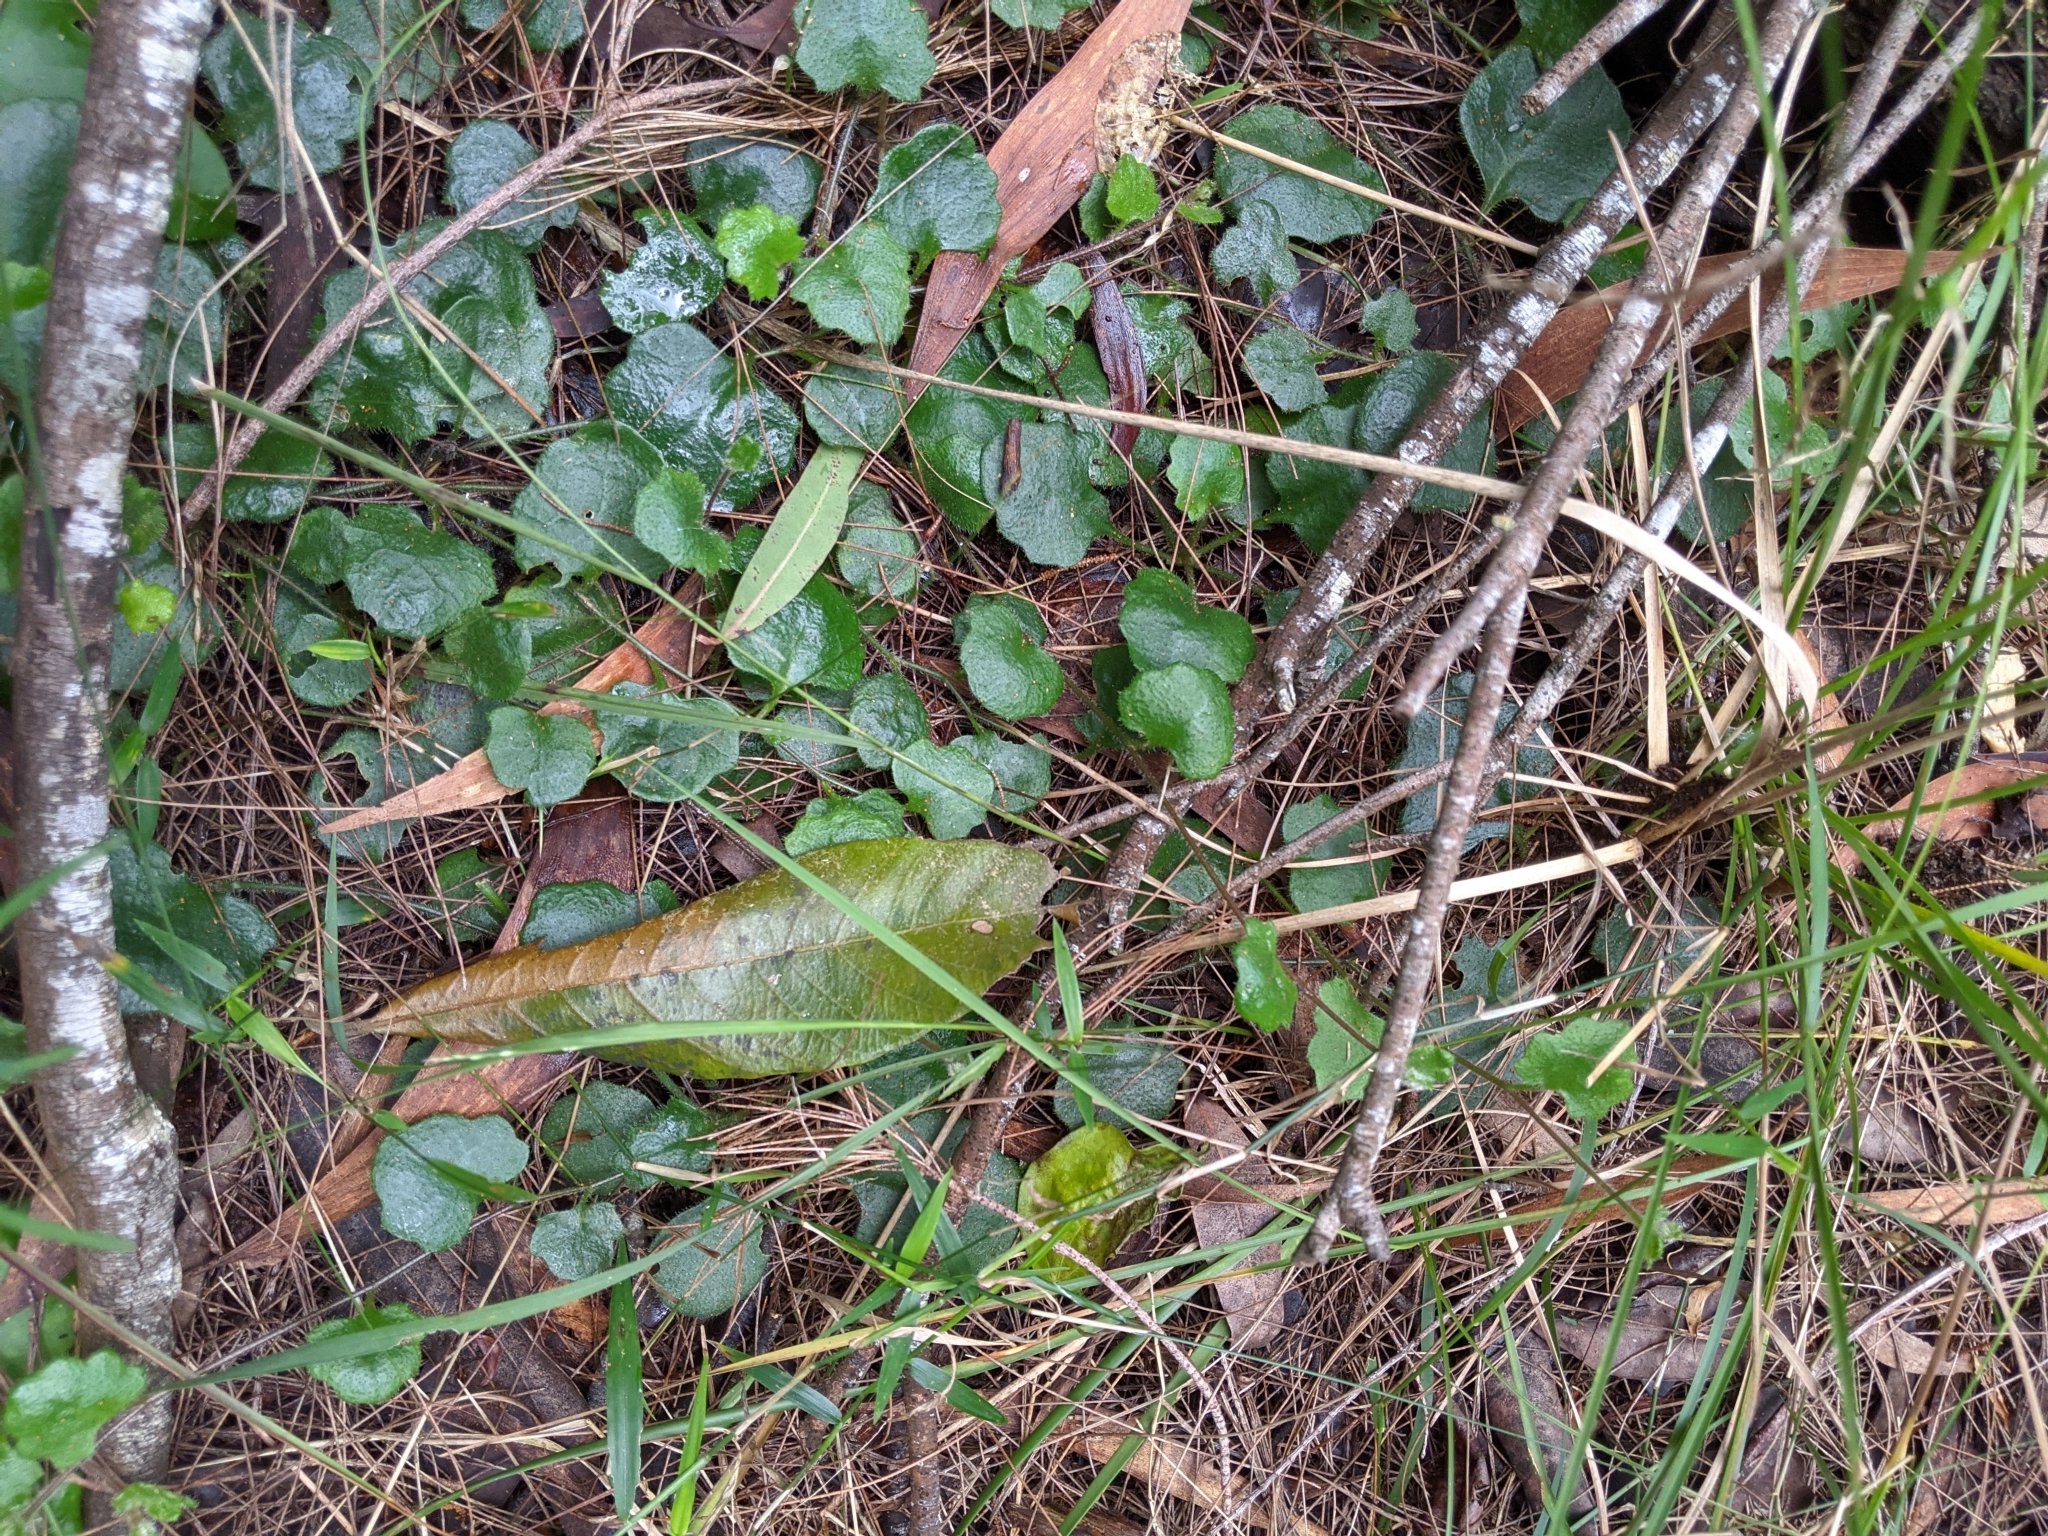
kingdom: Plantae
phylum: Tracheophyta
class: Magnoliopsida
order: Asterales
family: Goodeniaceae
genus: Goodenia
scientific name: Goodenia rotundifolia
